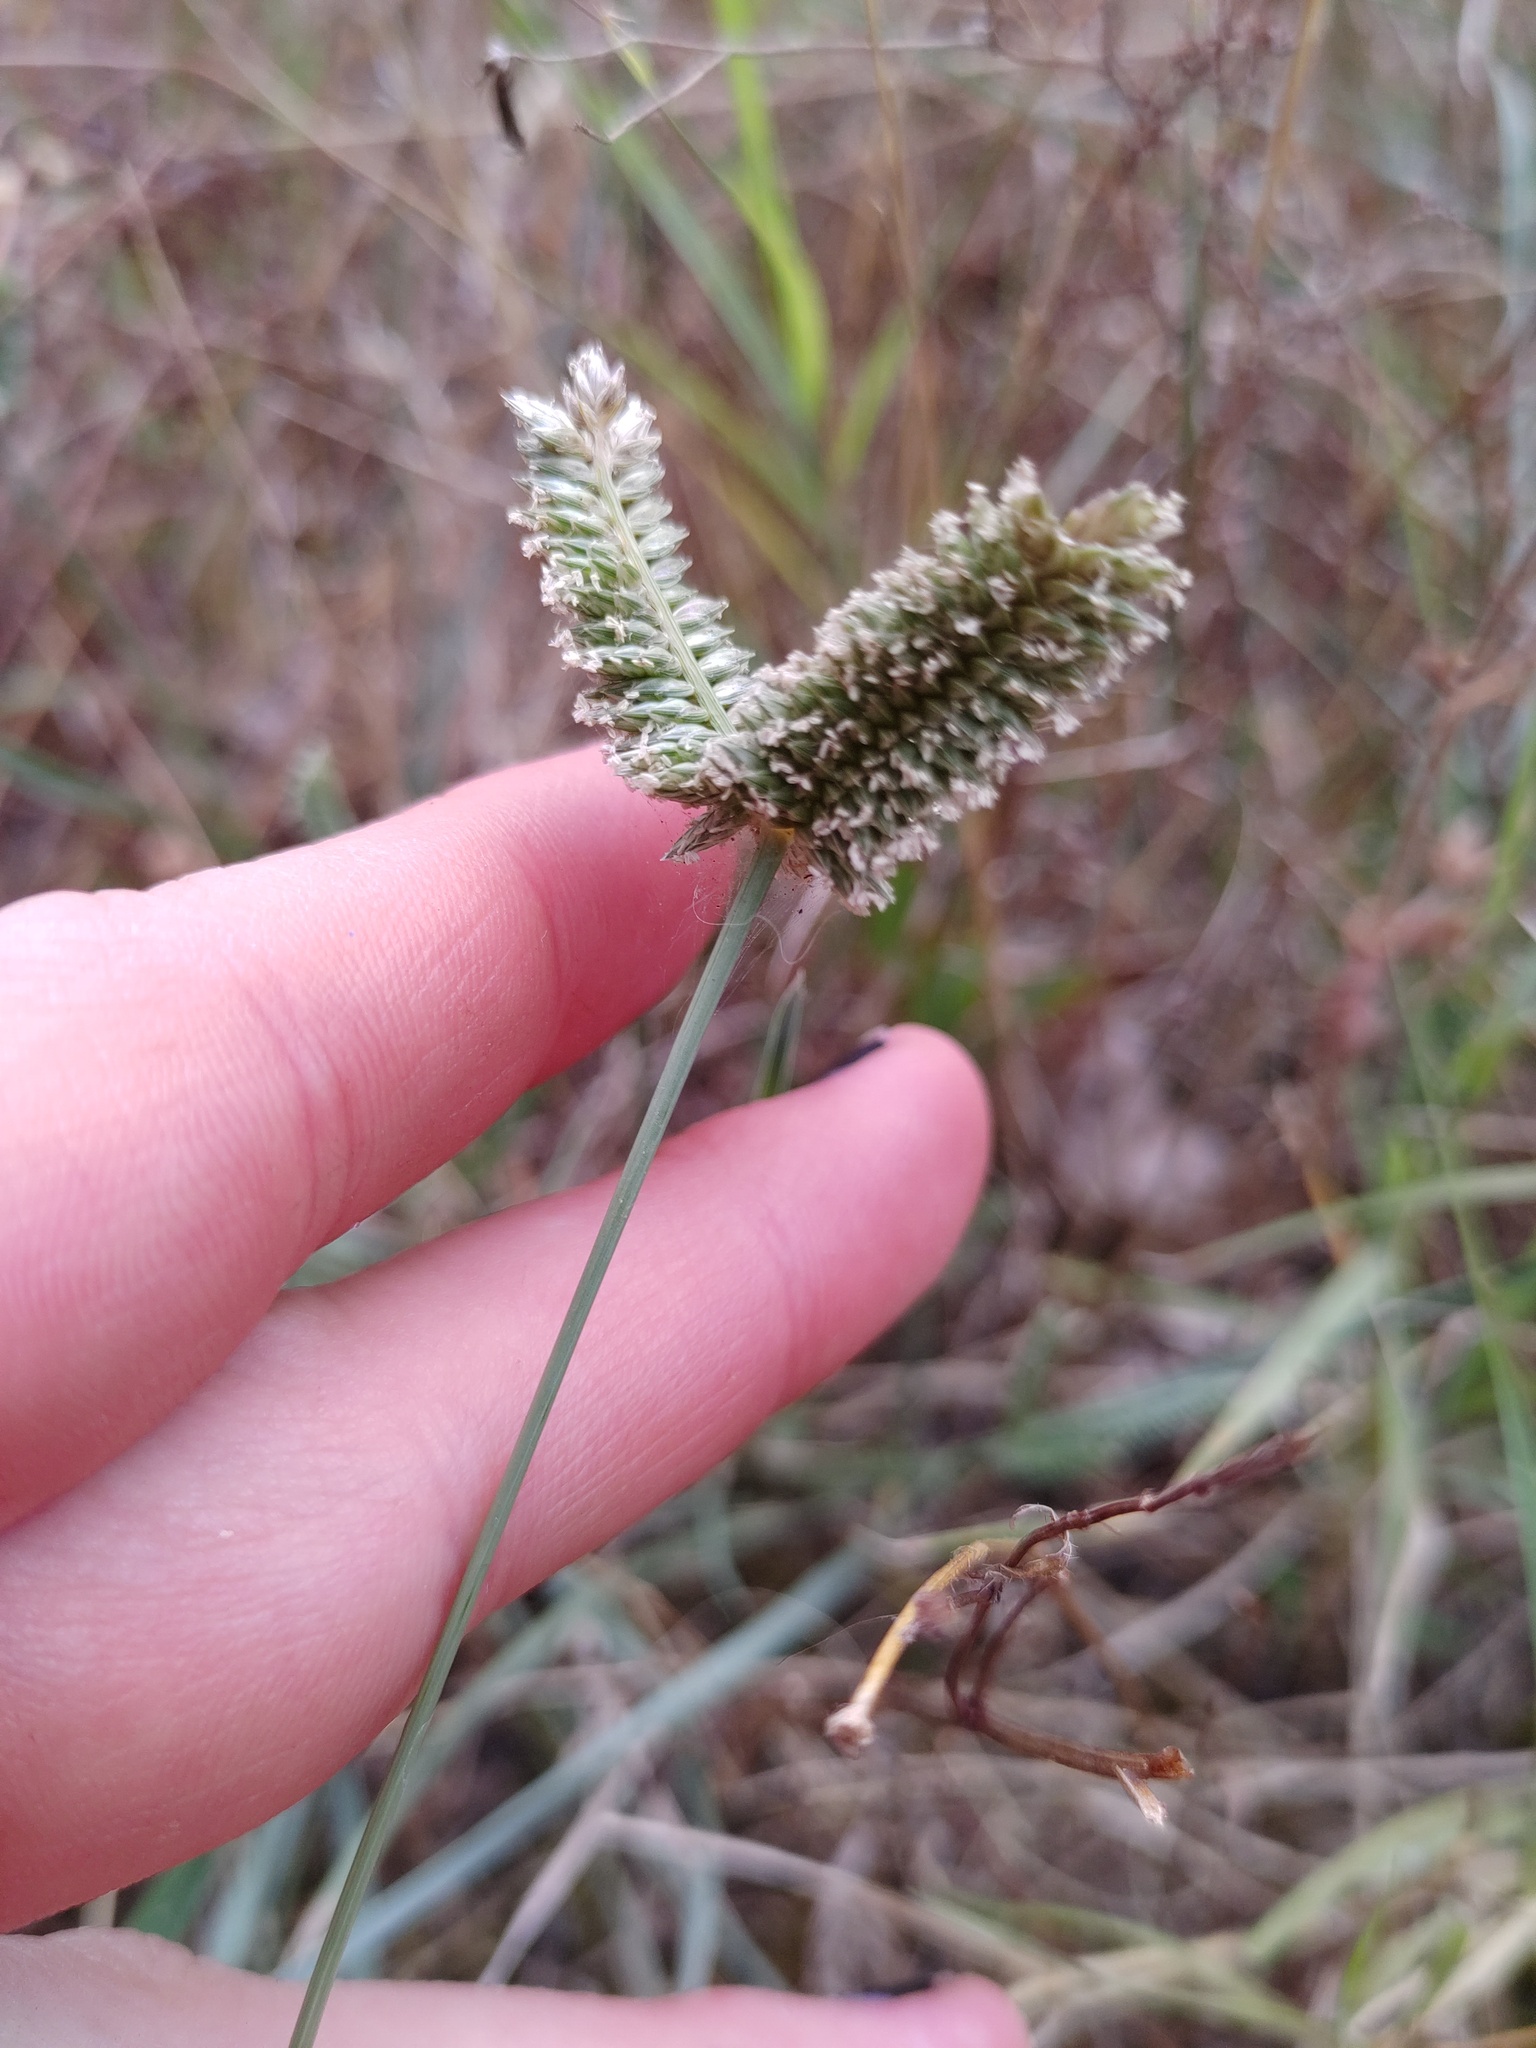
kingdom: Plantae
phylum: Tracheophyta
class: Liliopsida
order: Poales
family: Poaceae
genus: Eleusine
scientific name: Eleusine tristachya
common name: American yard-grass
